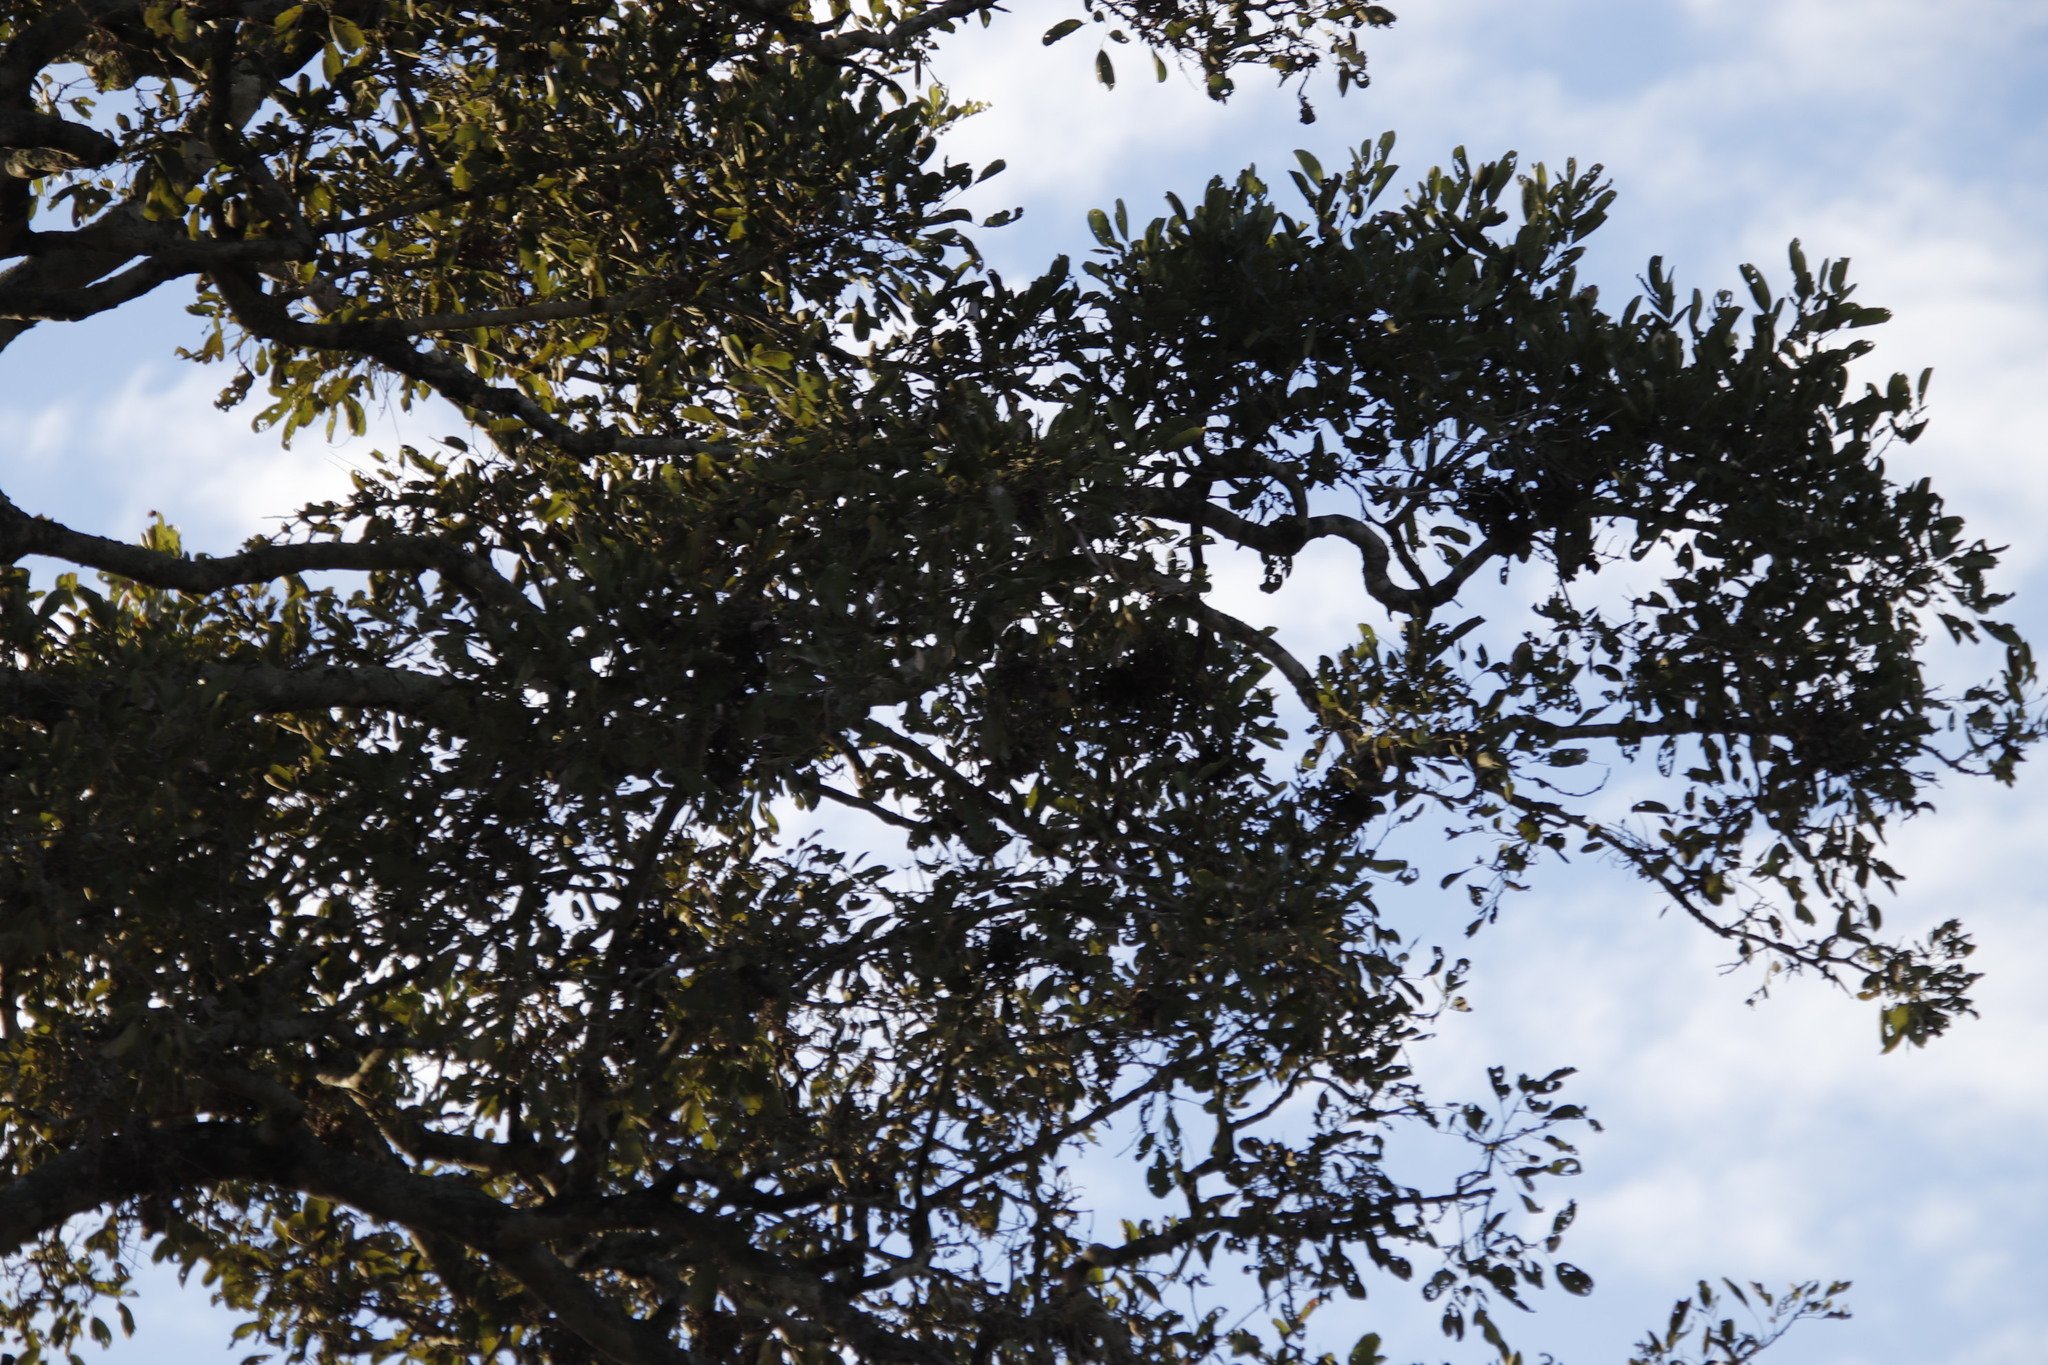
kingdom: Plantae
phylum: Tracheophyta
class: Magnoliopsida
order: Fabales
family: Fabaceae
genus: Philenoptera
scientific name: Philenoptera violacea
